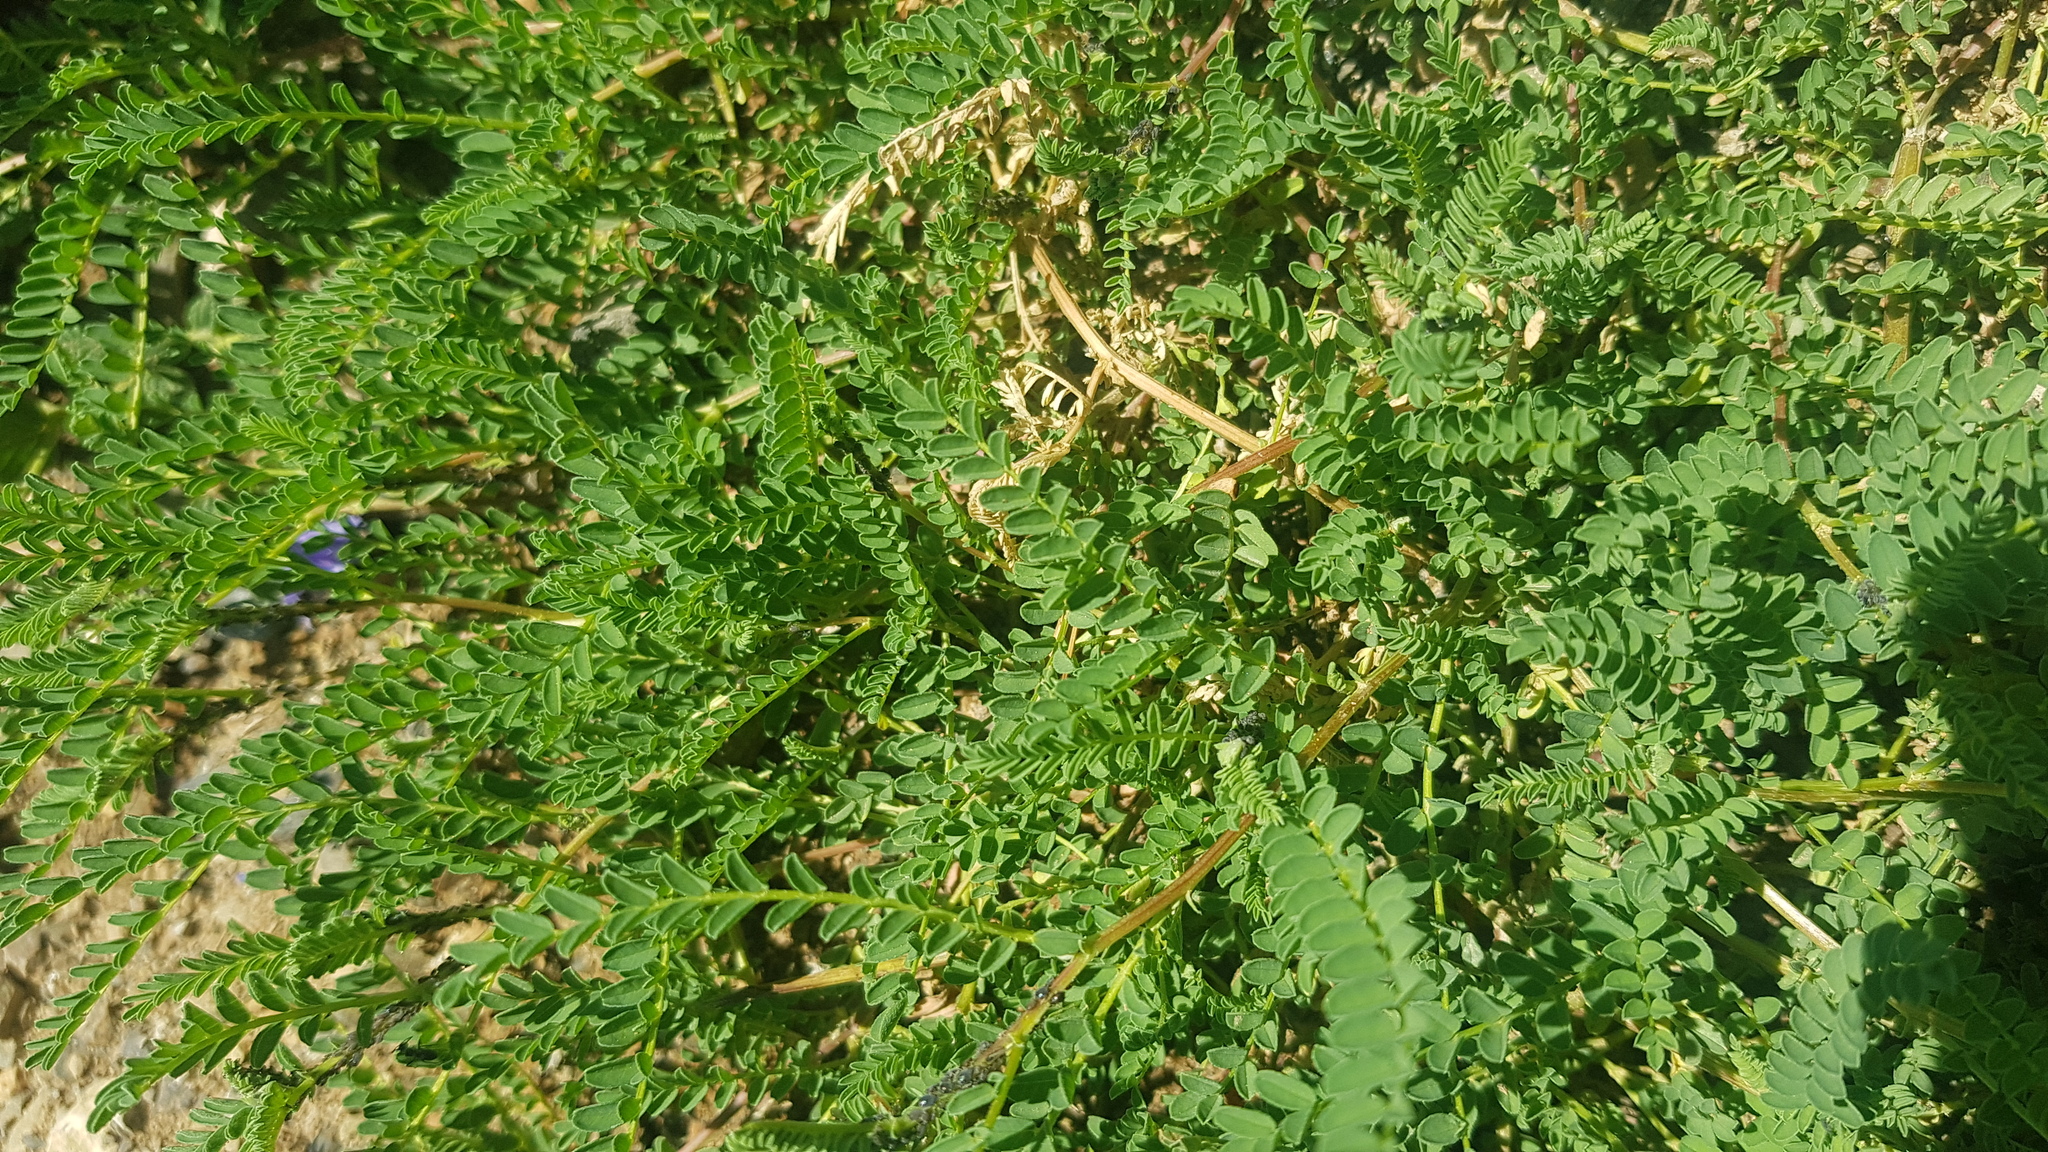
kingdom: Plantae
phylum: Tracheophyta
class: Magnoliopsida
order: Fabales
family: Fabaceae
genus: Astragalus
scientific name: Astragalus mongholicus
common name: Membranous milk-vetch
